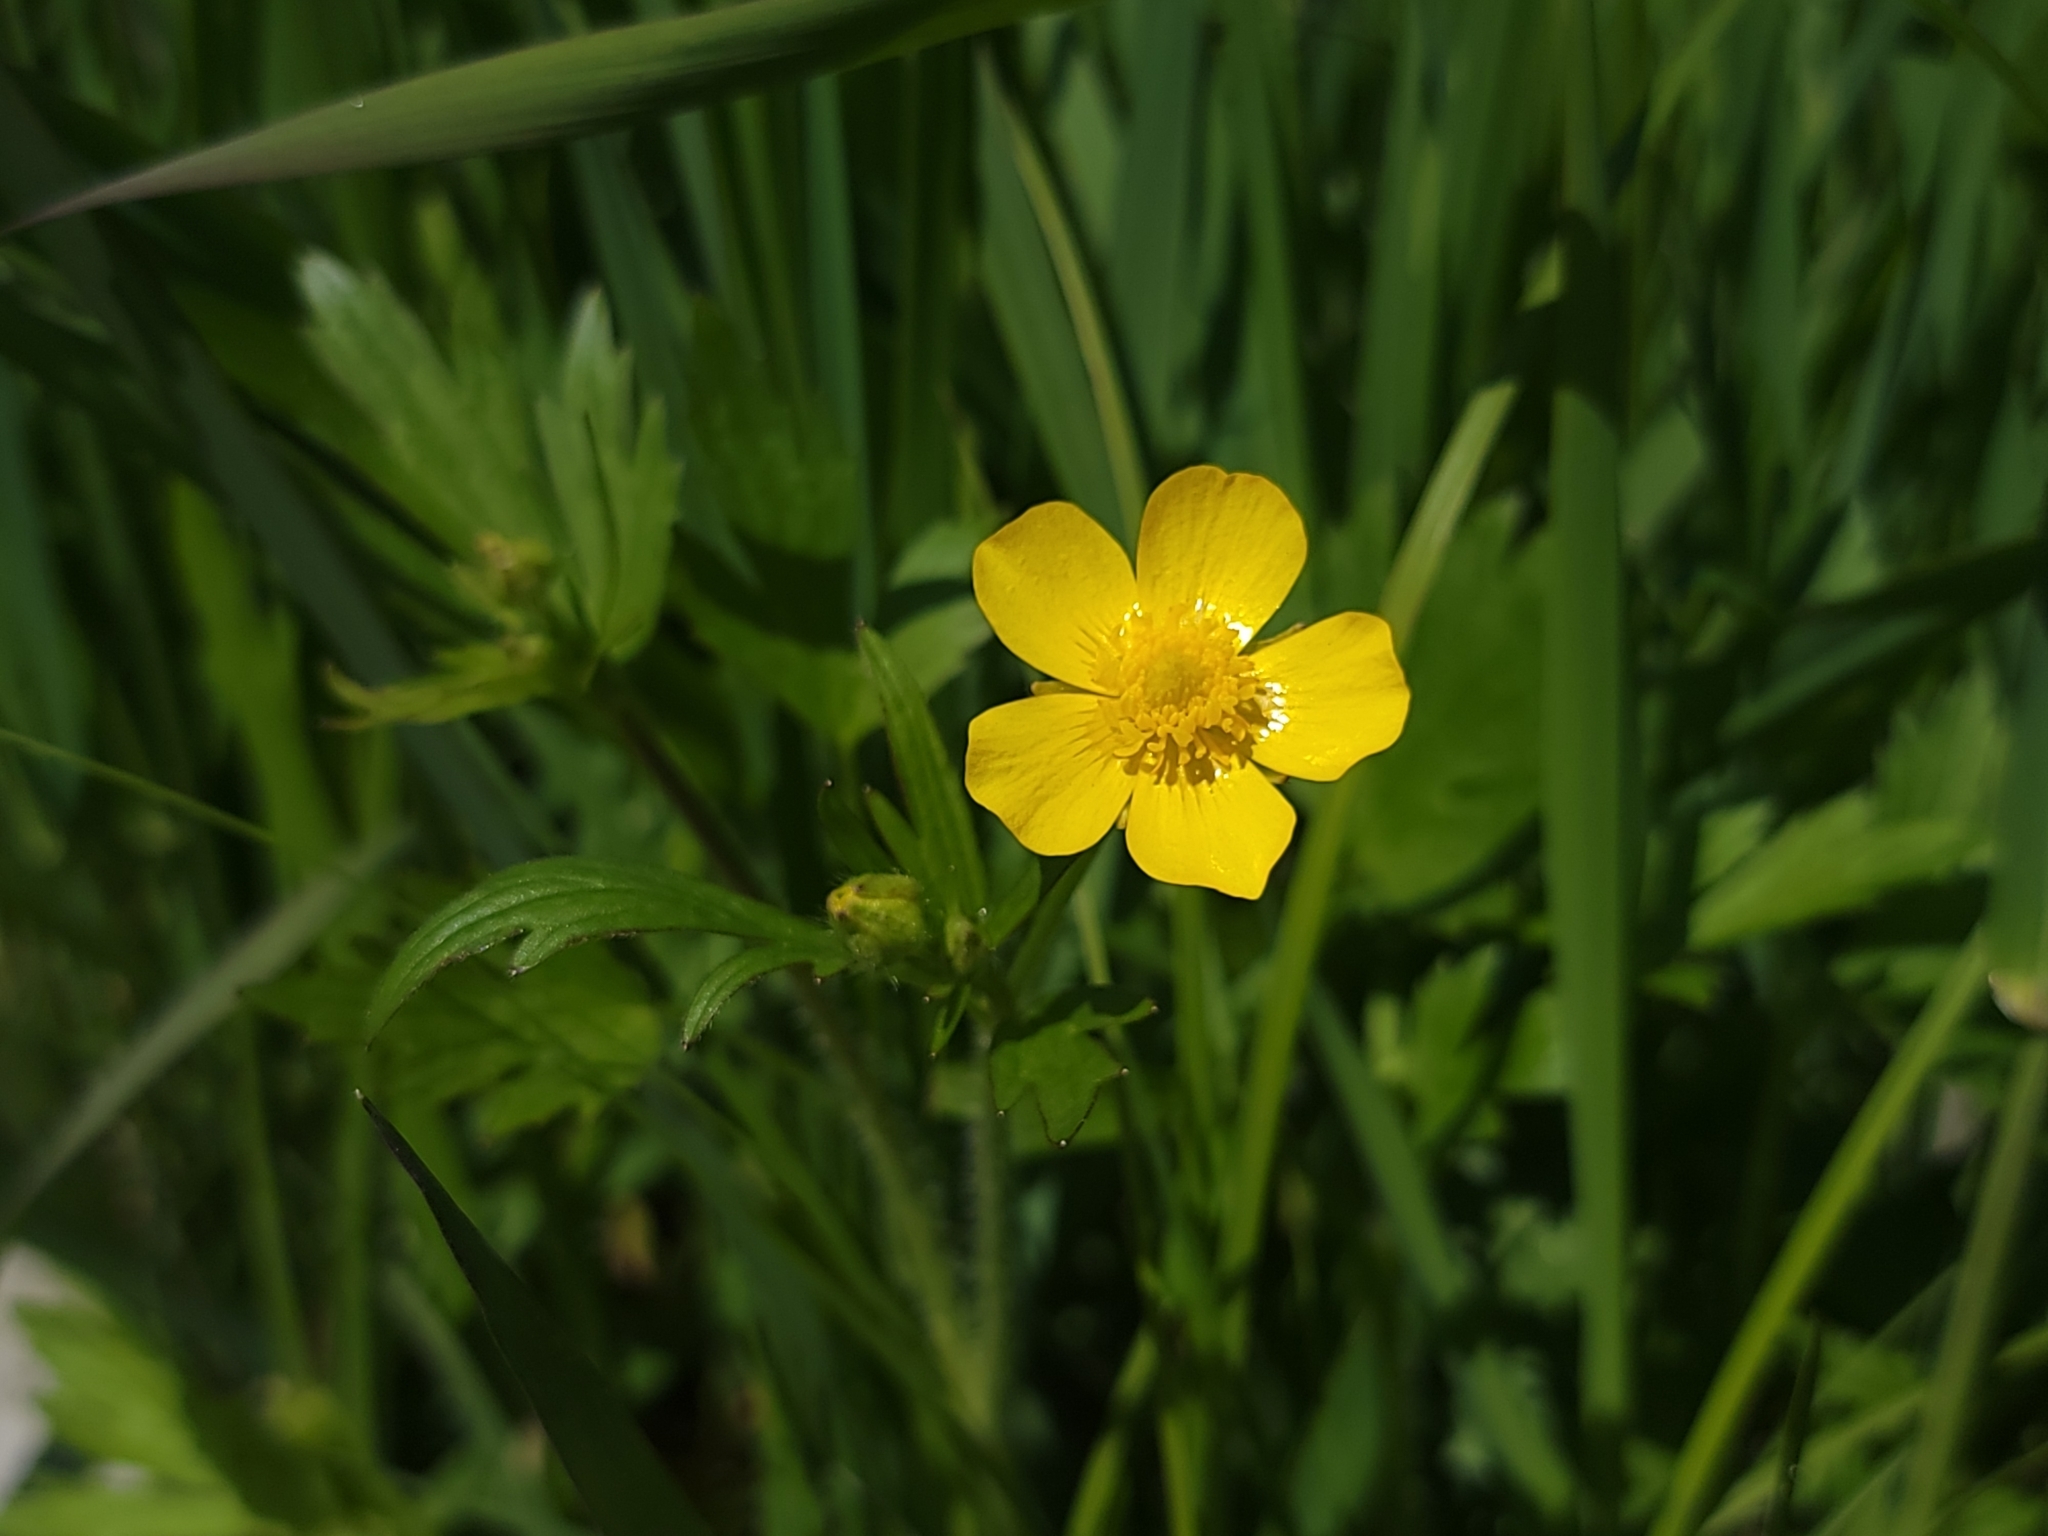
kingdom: Plantae
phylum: Tracheophyta
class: Magnoliopsida
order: Ranunculales
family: Ranunculaceae
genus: Ranunculus
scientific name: Ranunculus hispidus
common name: Bristly buttercup
